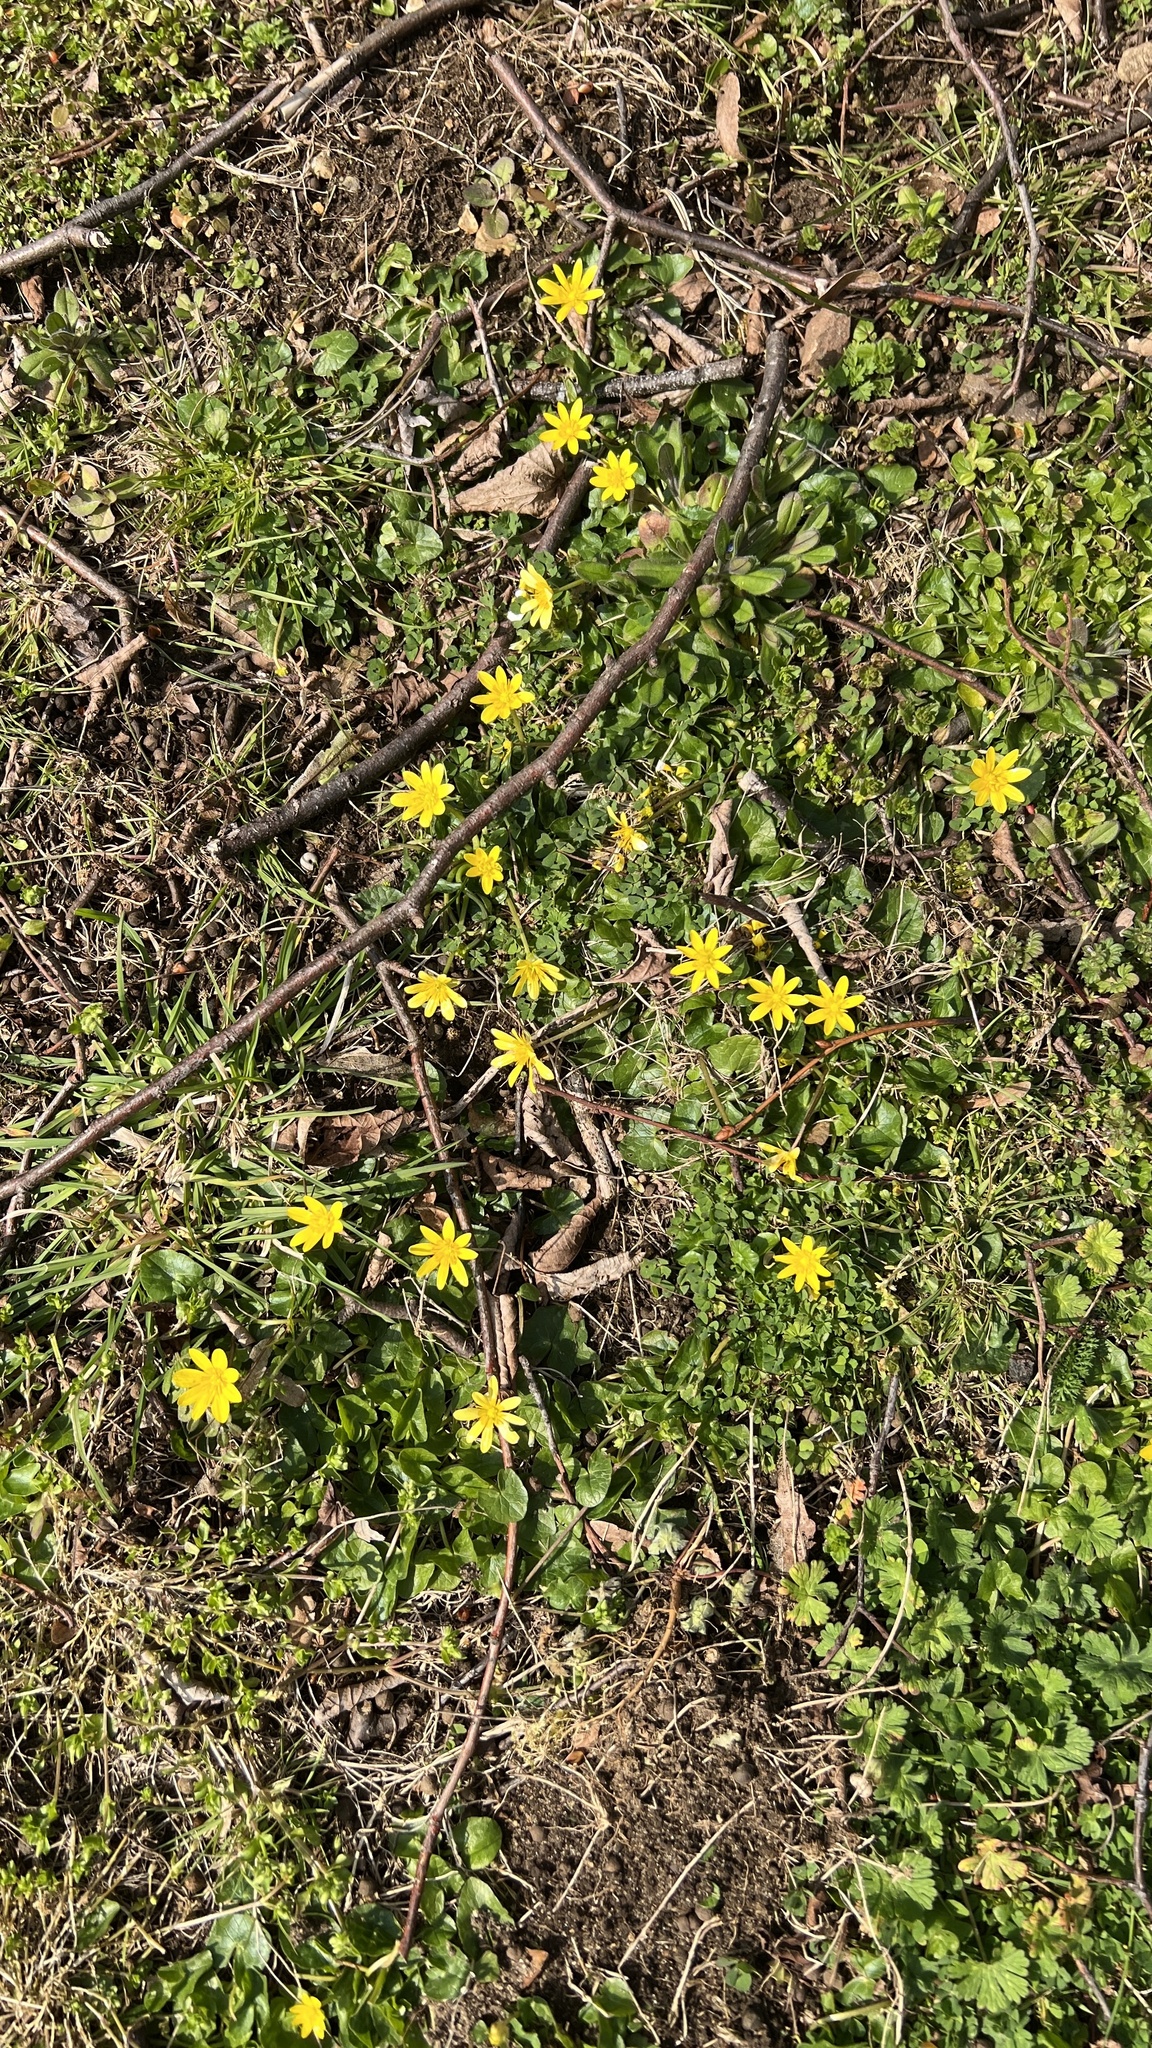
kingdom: Plantae
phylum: Tracheophyta
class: Magnoliopsida
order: Ranunculales
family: Ranunculaceae
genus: Ficaria
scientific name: Ficaria verna
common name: Lesser celandine
